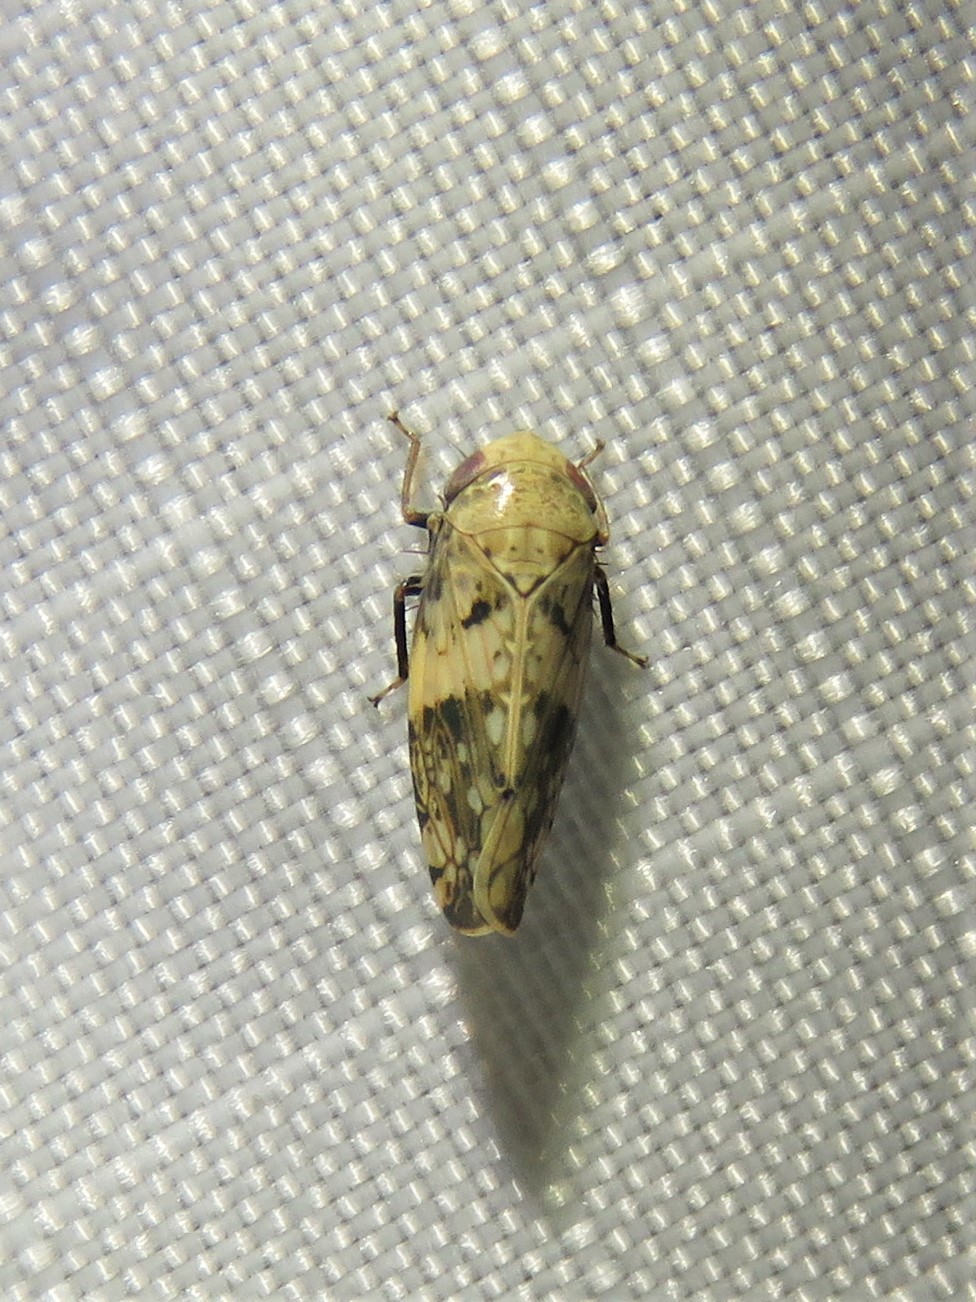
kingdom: Animalia
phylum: Arthropoda
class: Insecta
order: Hemiptera
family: Cicadellidae
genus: Menosoma
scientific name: Menosoma cinctum
